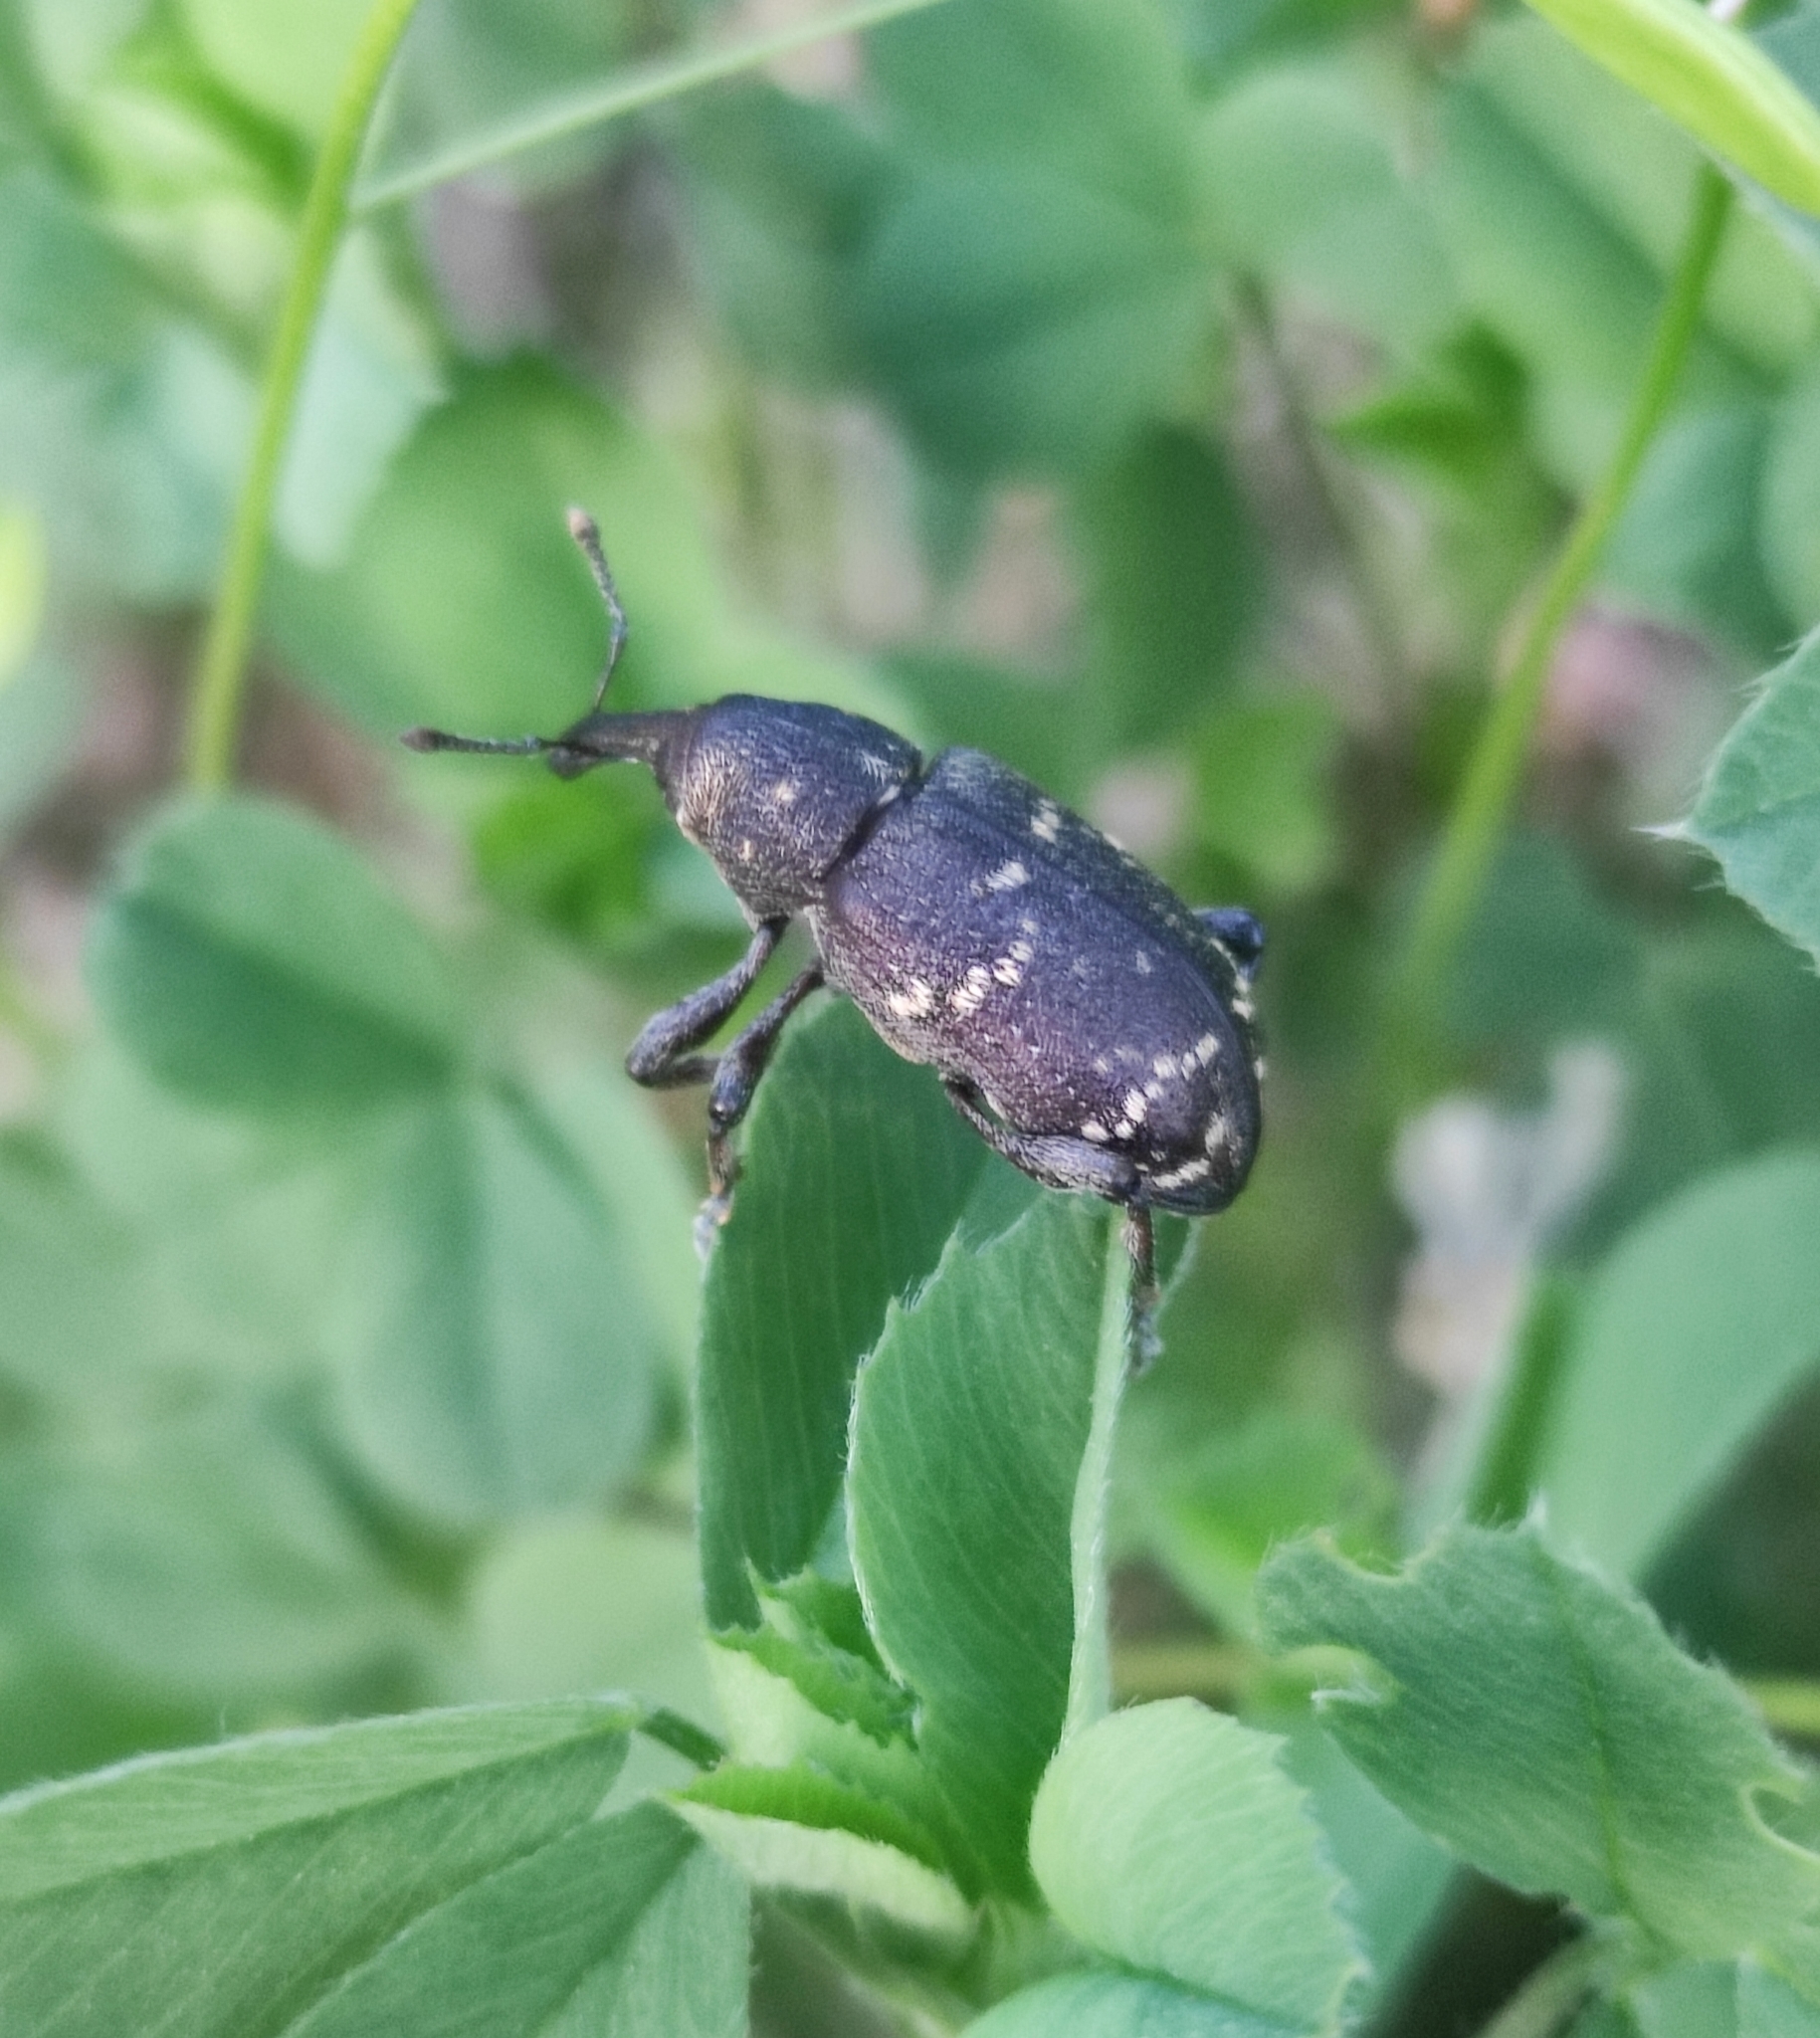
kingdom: Animalia
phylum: Arthropoda
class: Insecta
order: Coleoptera
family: Curculionidae
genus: Hylobius
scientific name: Hylobius abietis
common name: Large pine weevil
